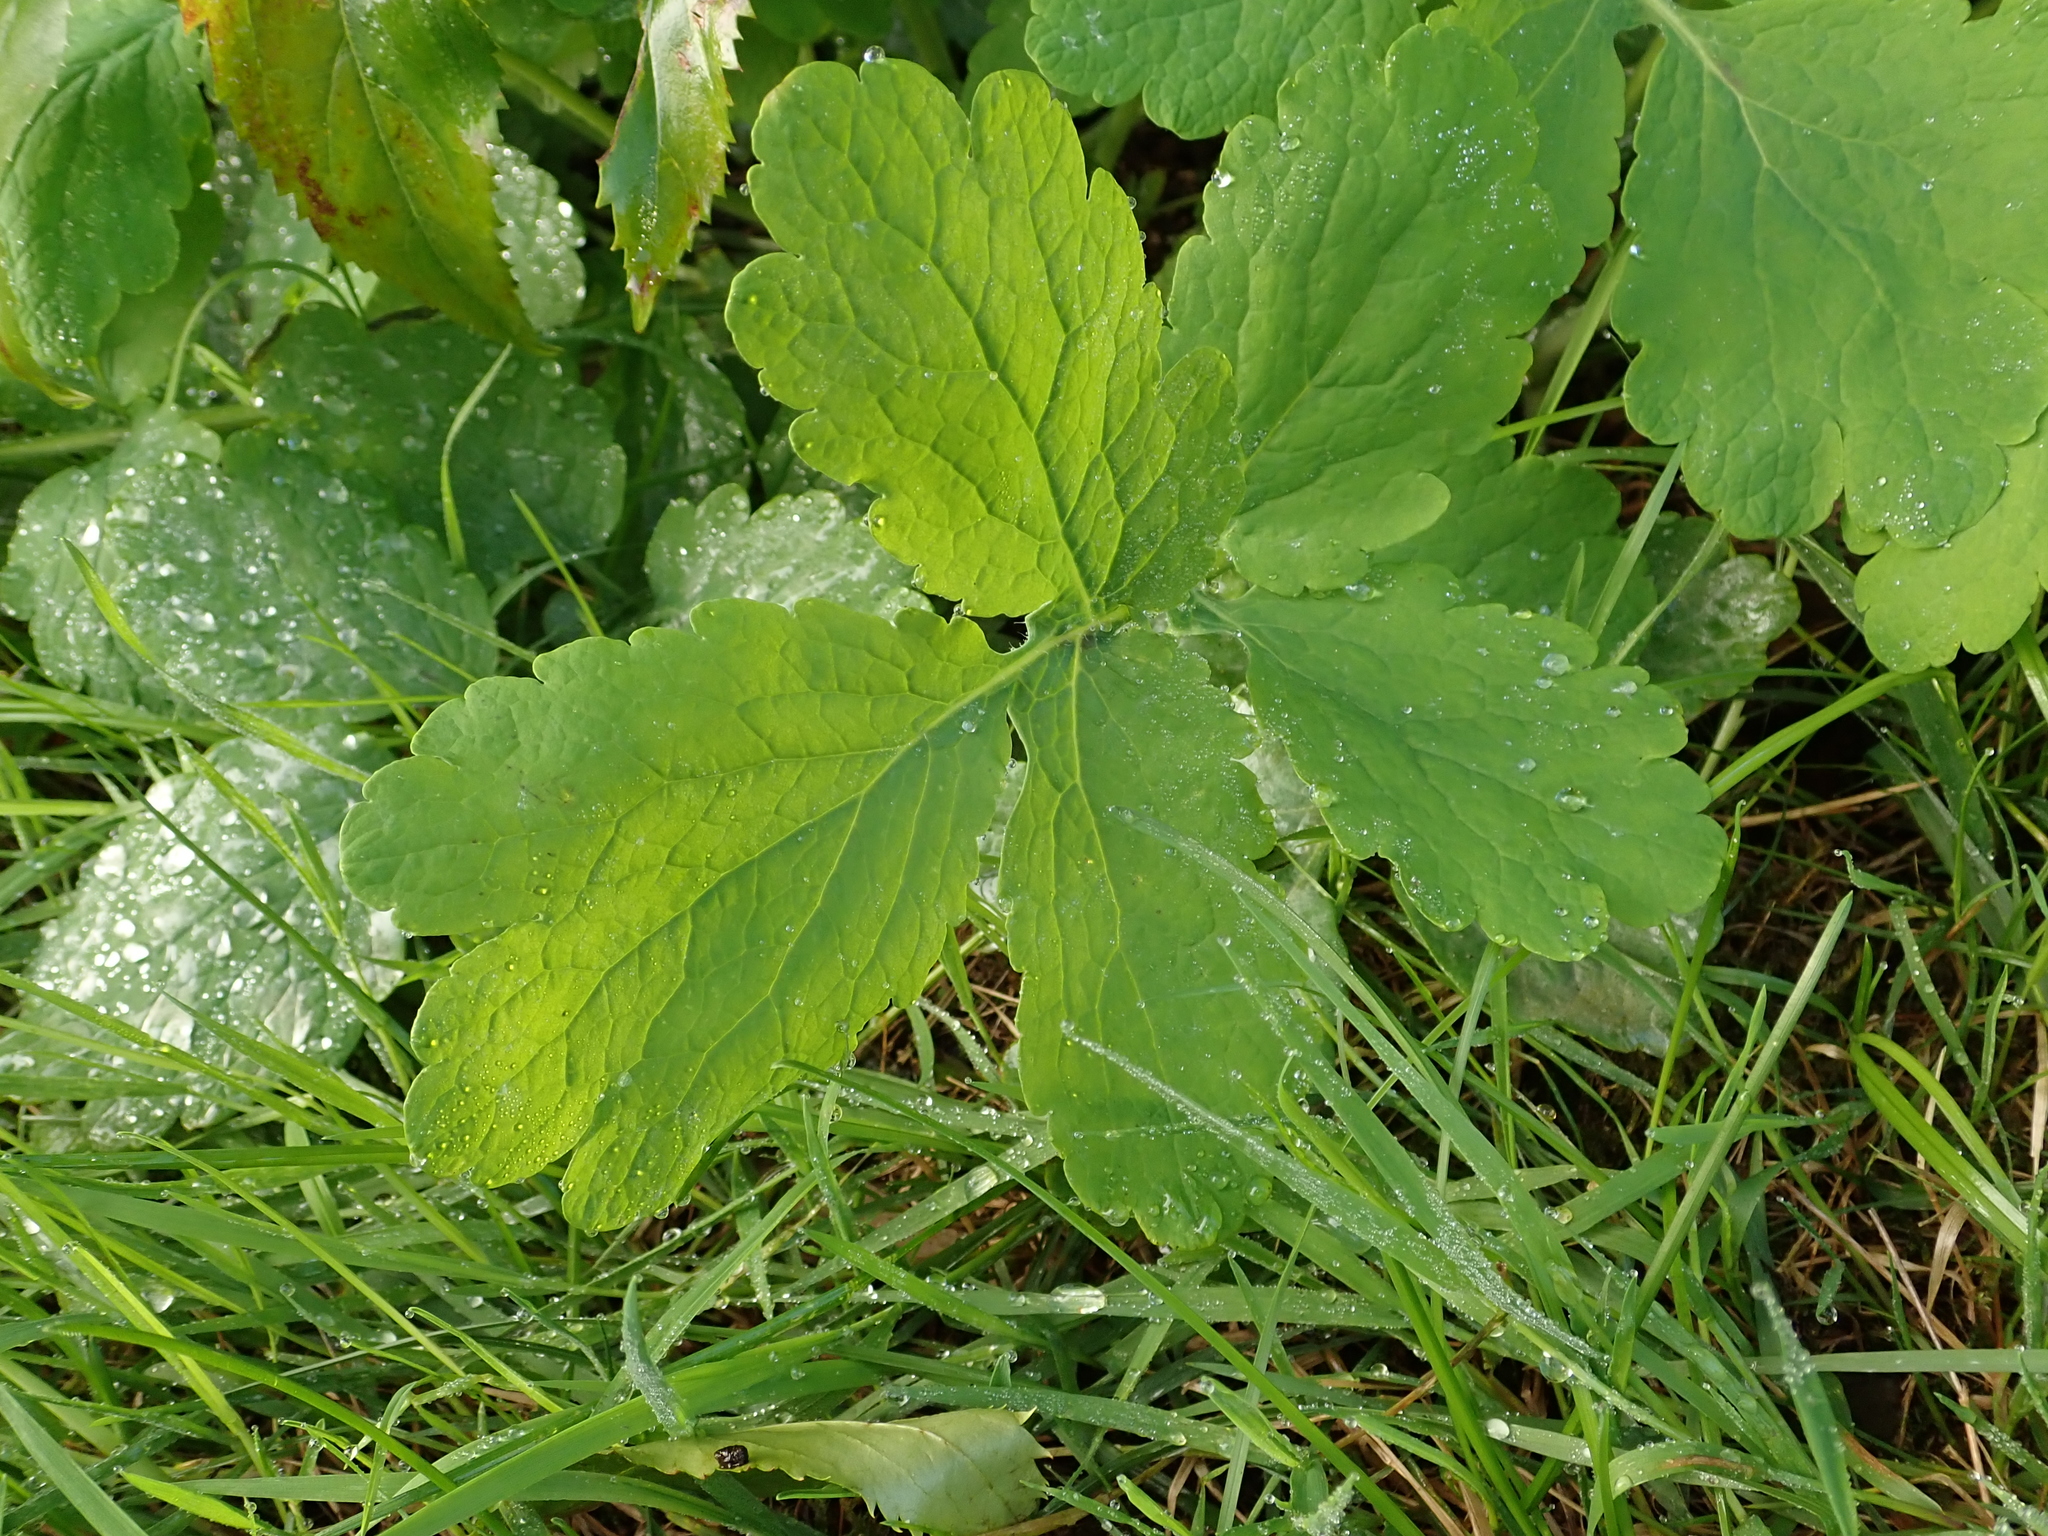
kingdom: Plantae
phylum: Tracheophyta
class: Magnoliopsida
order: Ranunculales
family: Papaveraceae
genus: Chelidonium
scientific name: Chelidonium majus
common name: Greater celandine
